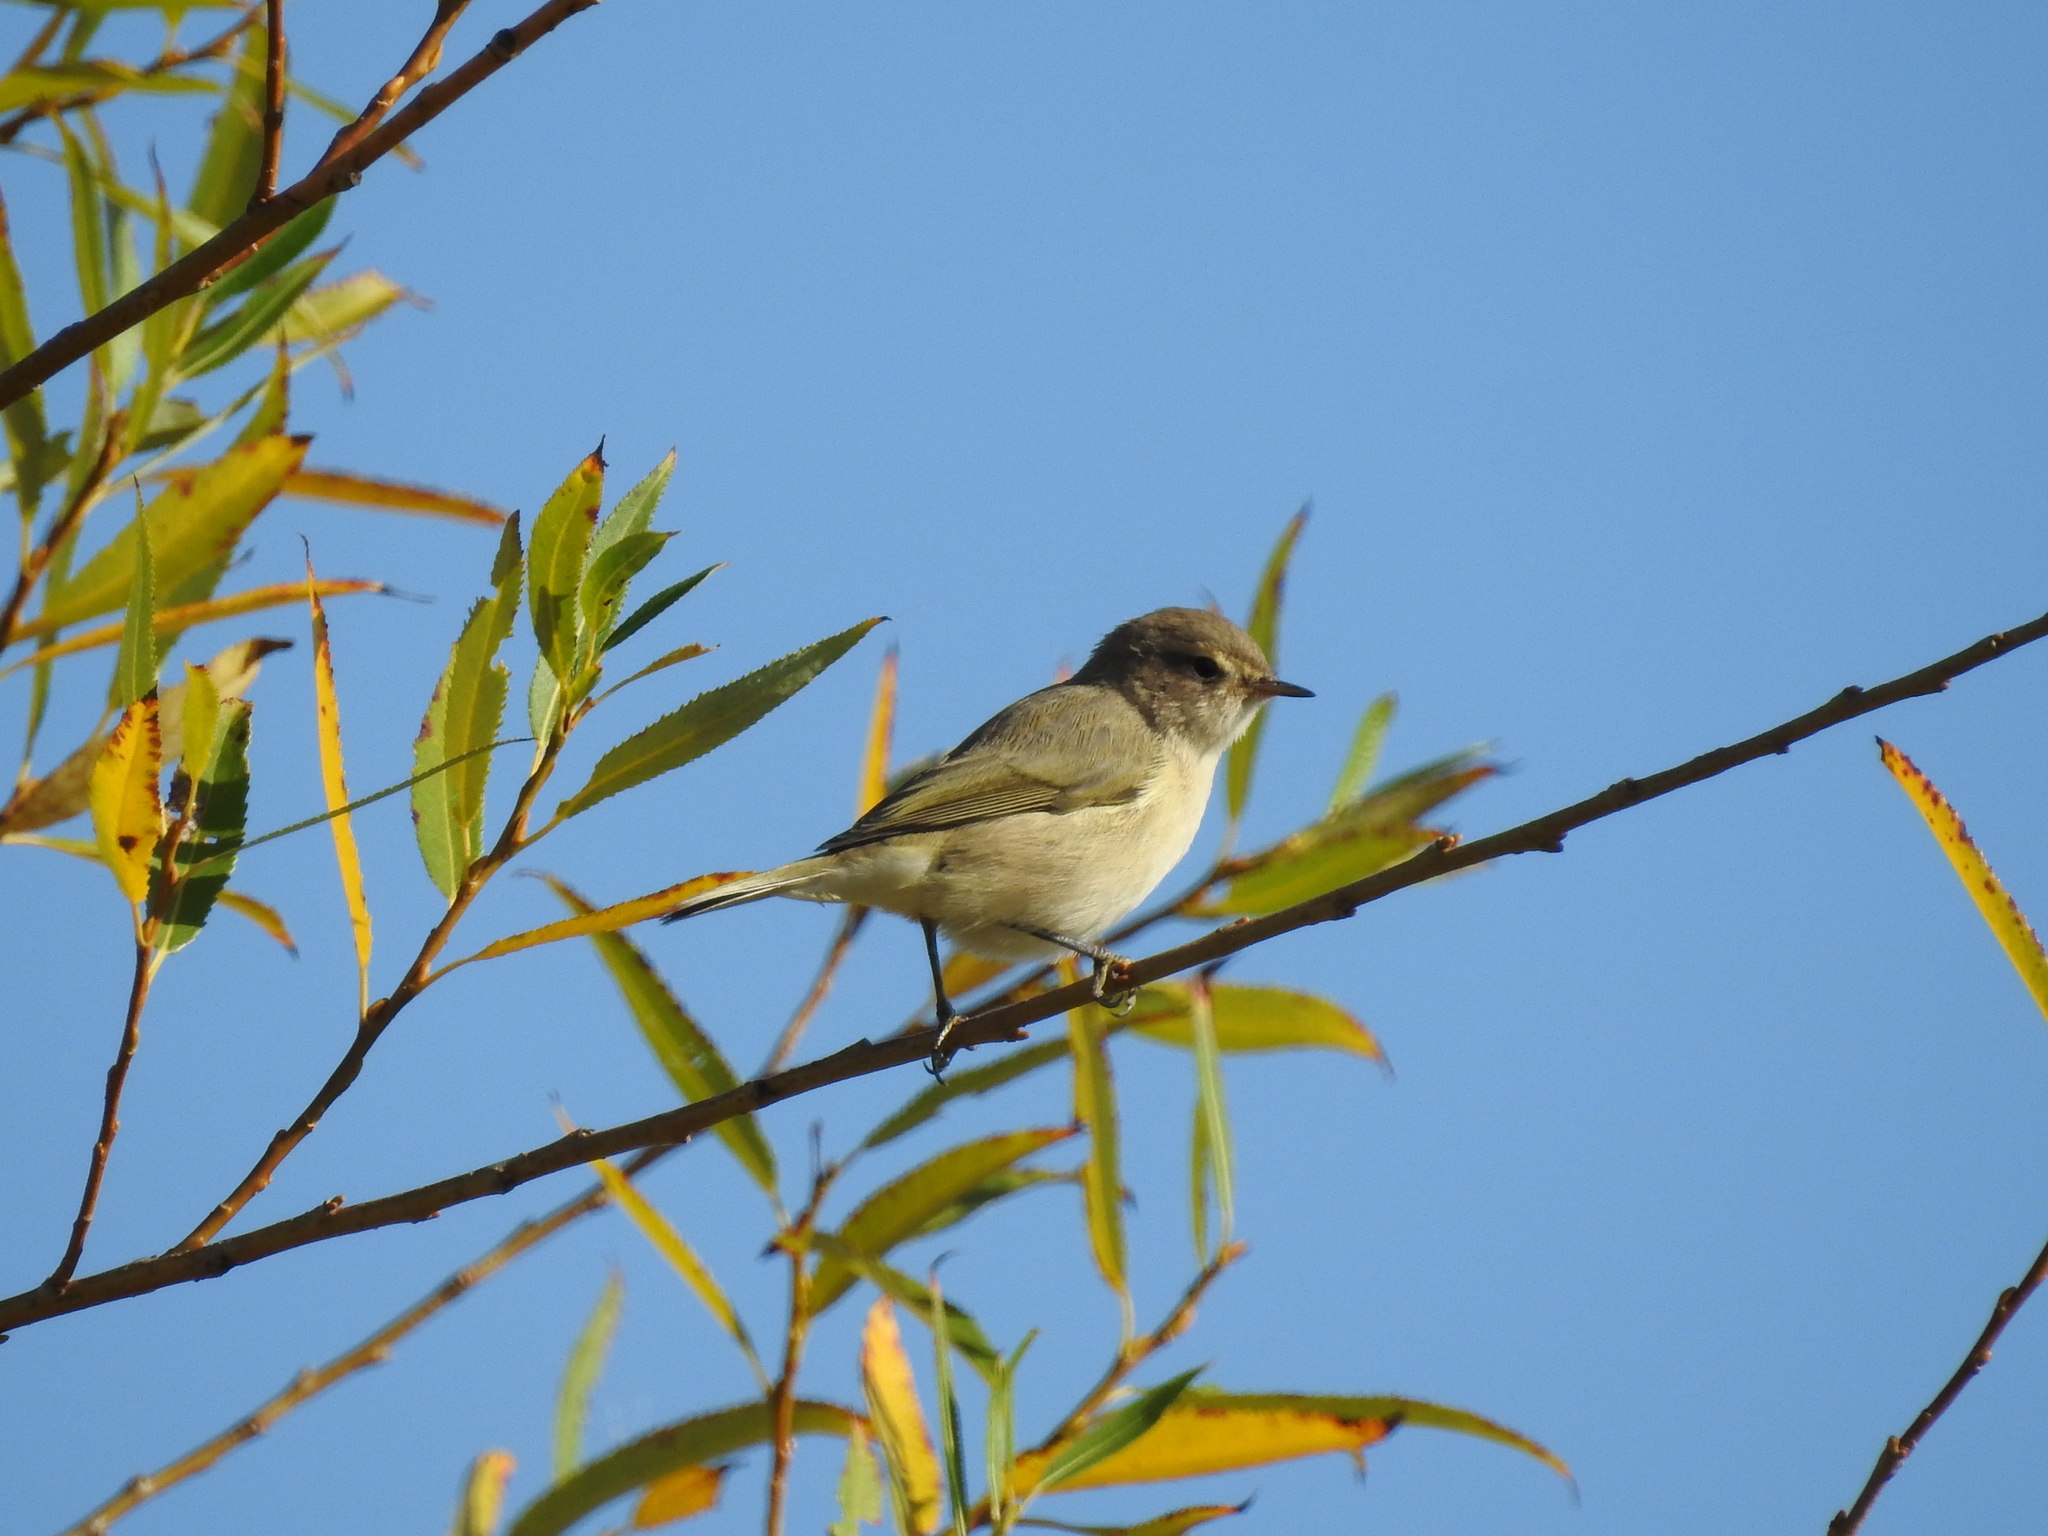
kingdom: Animalia
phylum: Chordata
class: Aves
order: Passeriformes
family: Phylloscopidae
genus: Phylloscopus
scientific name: Phylloscopus collybita
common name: Common chiffchaff
